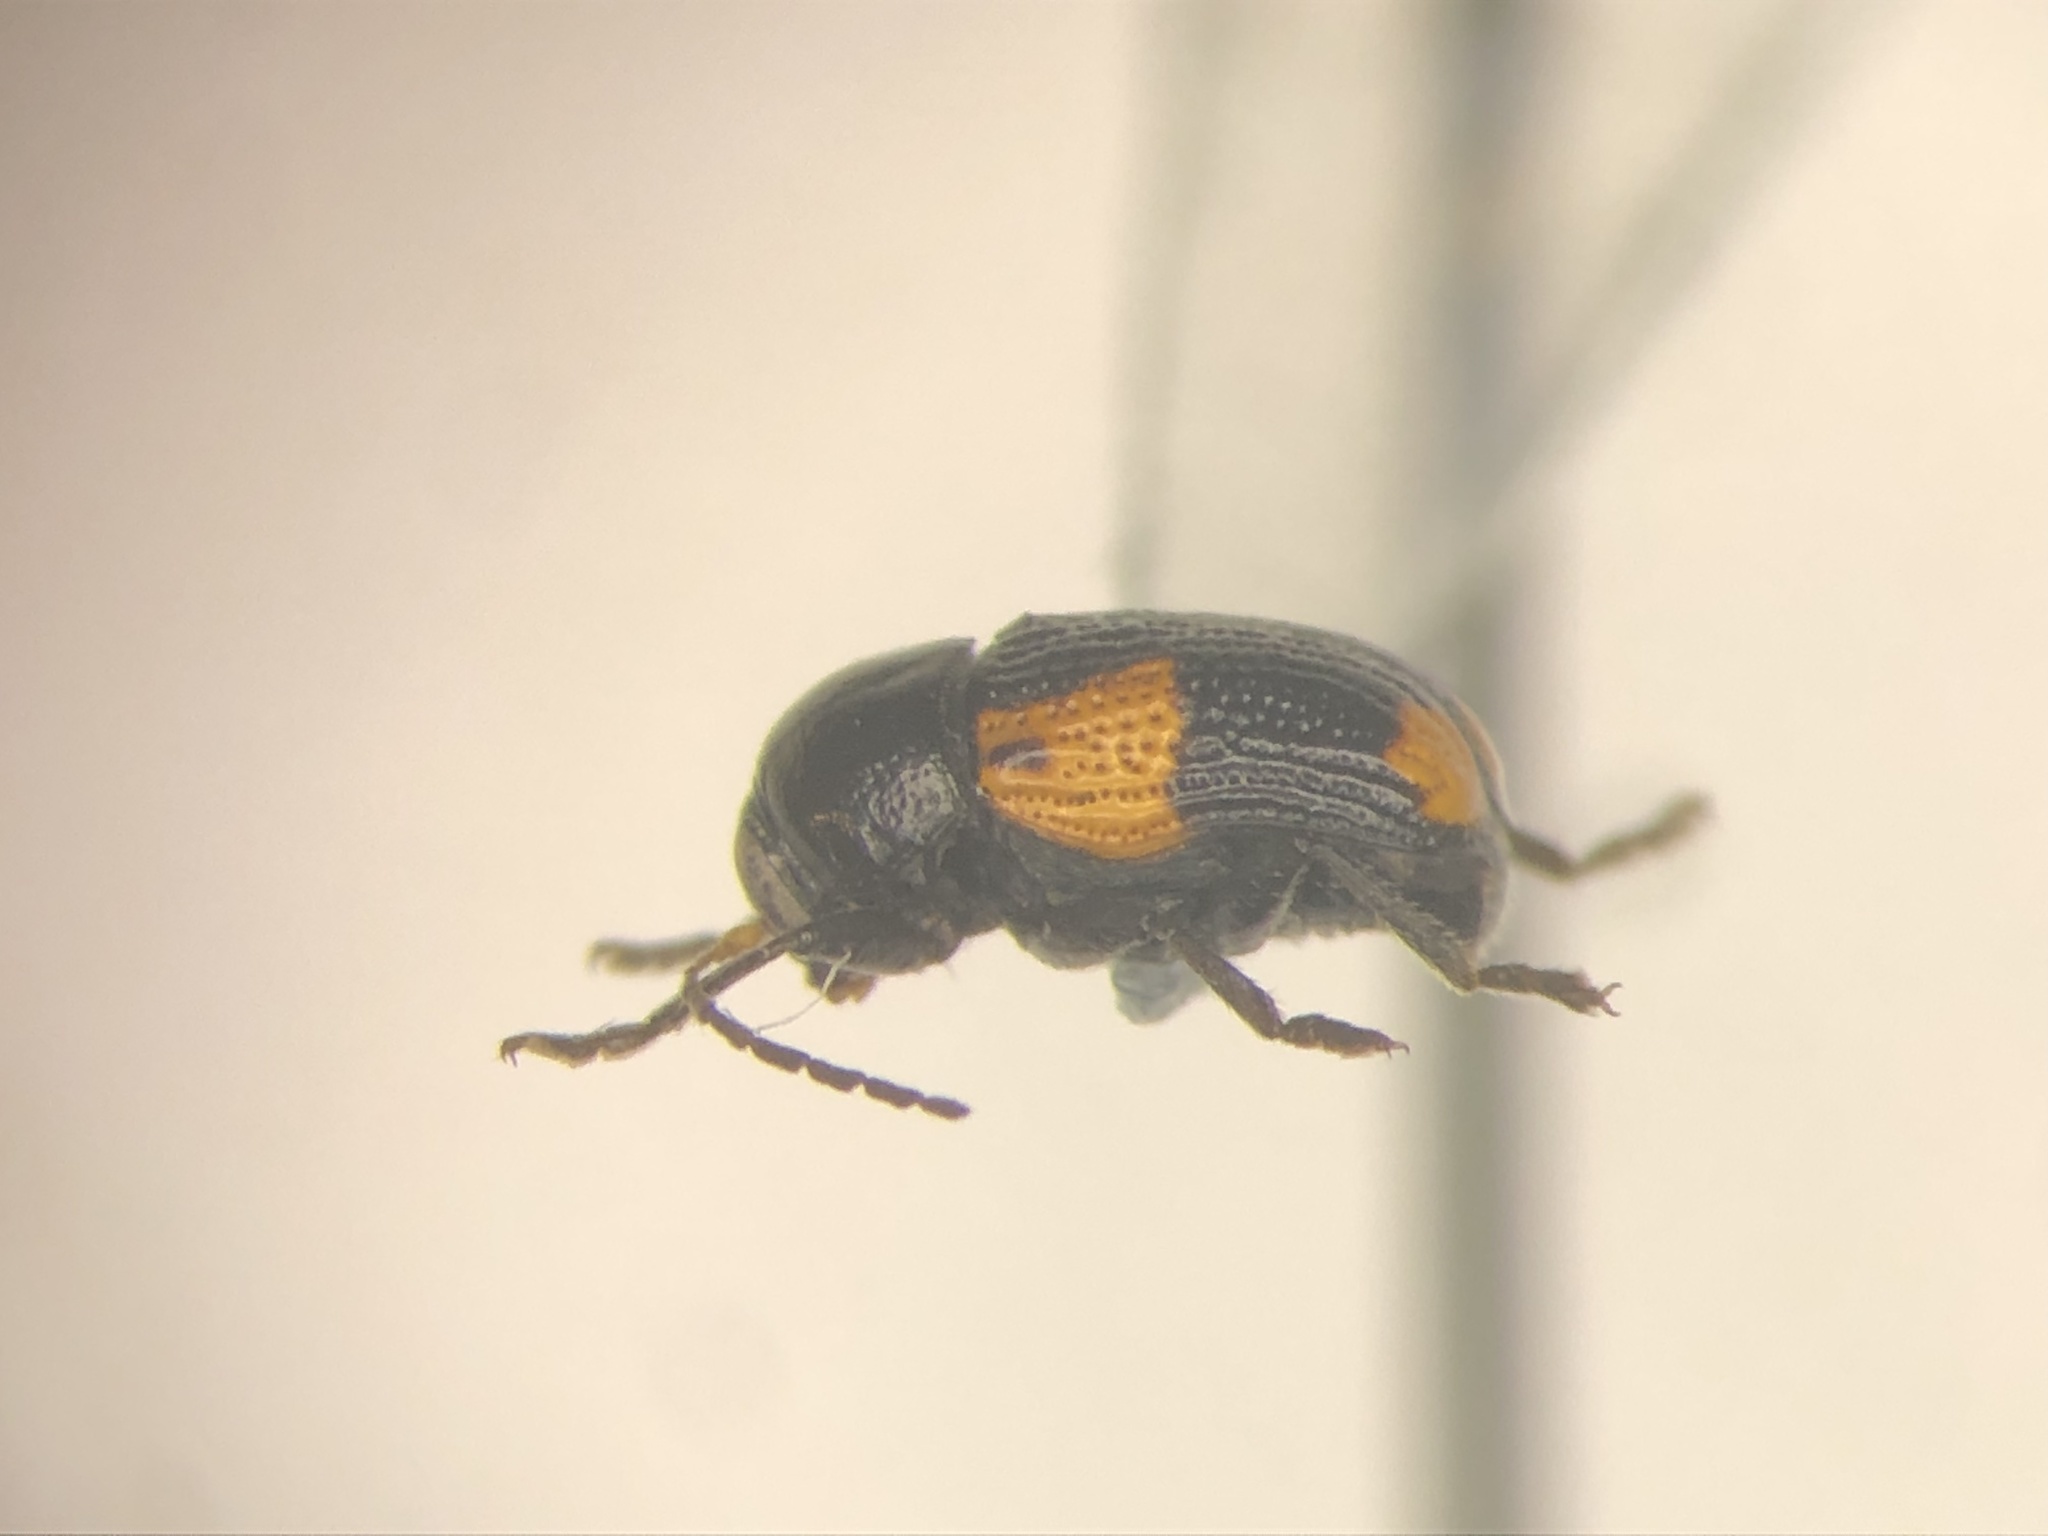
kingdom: Animalia
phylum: Arthropoda
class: Insecta
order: Coleoptera
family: Chrysomelidae
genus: Cryptocephalus
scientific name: Cryptocephalus quadruplex
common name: Black and red sumac leaf beetle
